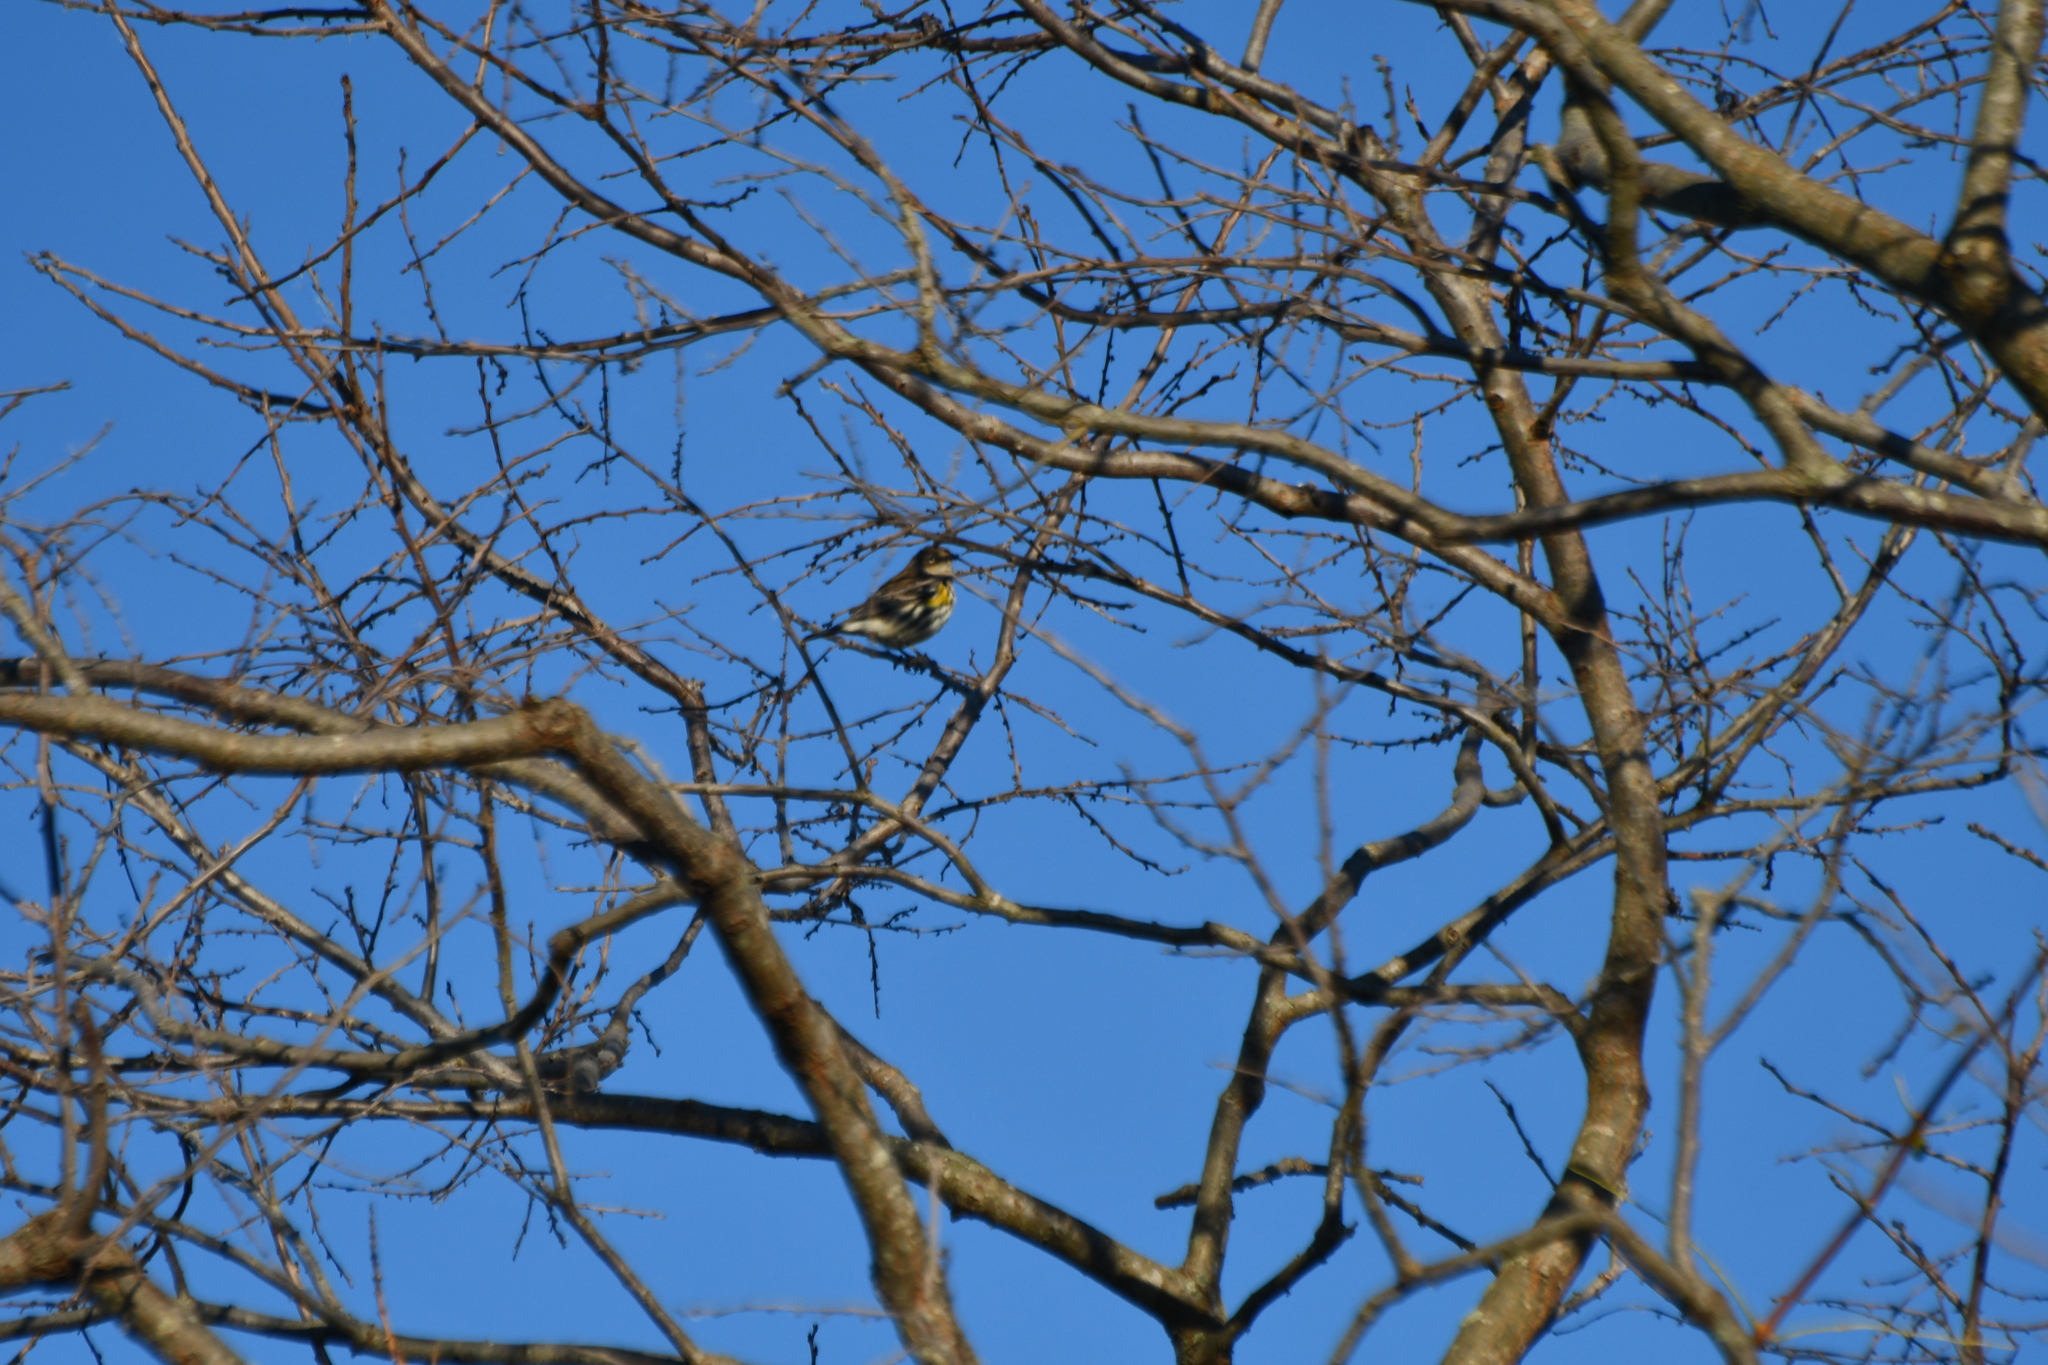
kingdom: Animalia
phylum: Chordata
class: Aves
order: Passeriformes
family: Parulidae
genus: Setophaga
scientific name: Setophaga coronata
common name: Myrtle warbler
